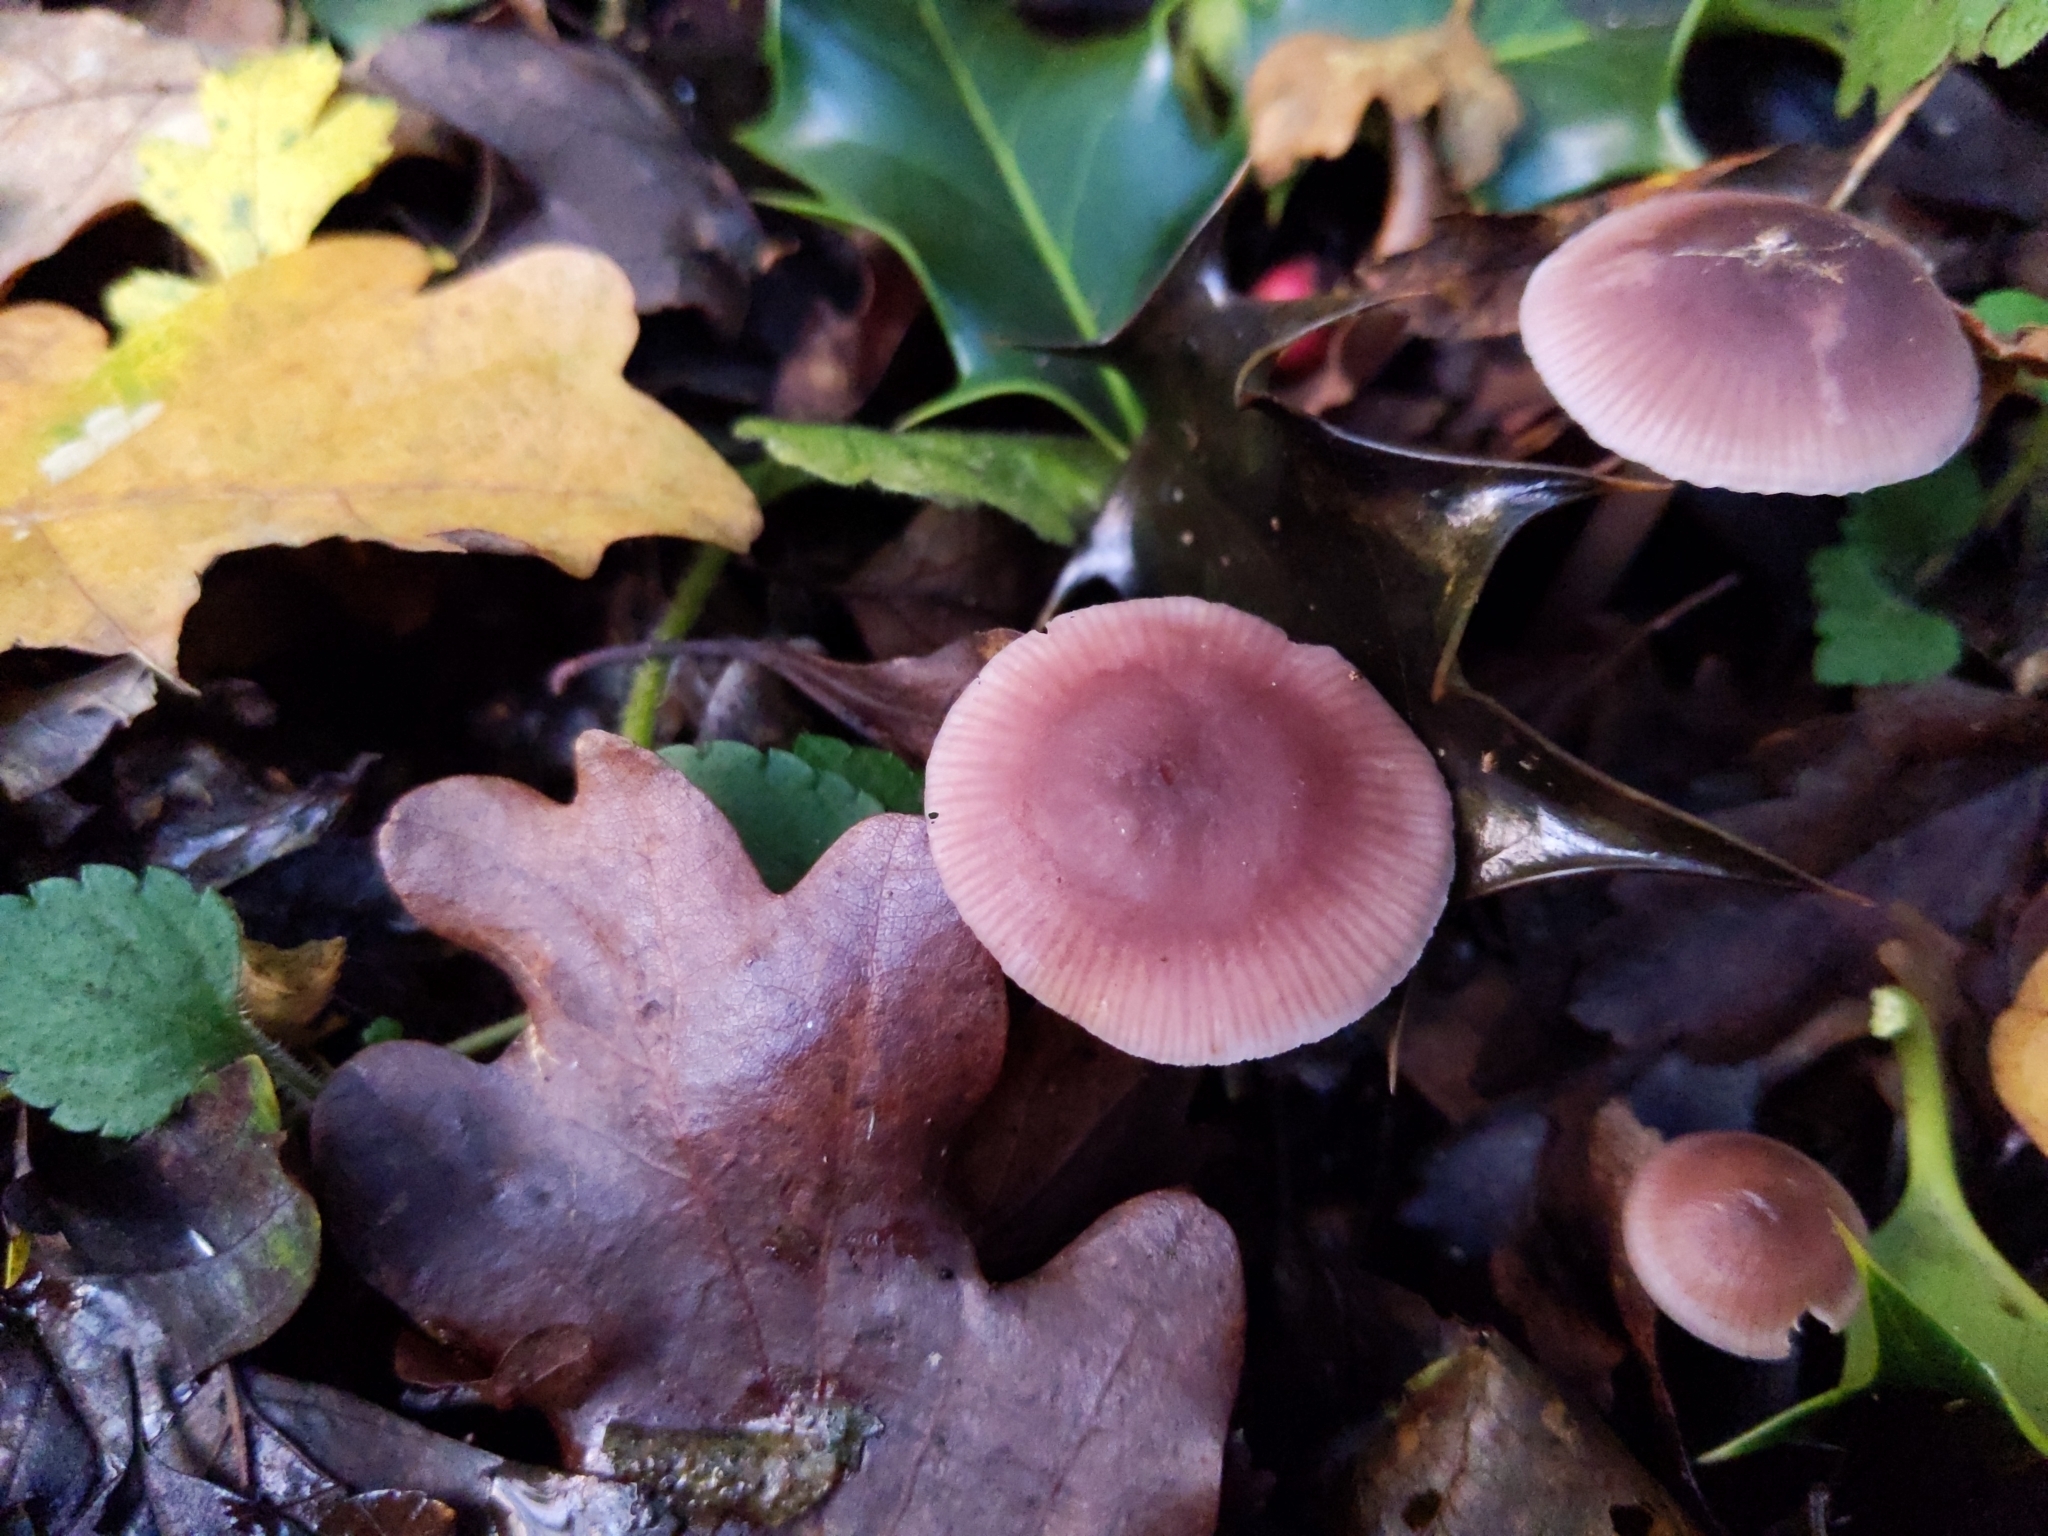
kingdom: Fungi
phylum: Basidiomycota
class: Agaricomycetes
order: Agaricales
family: Mycenaceae
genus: Mycena
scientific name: Mycena pura
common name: Lilac bonnet
